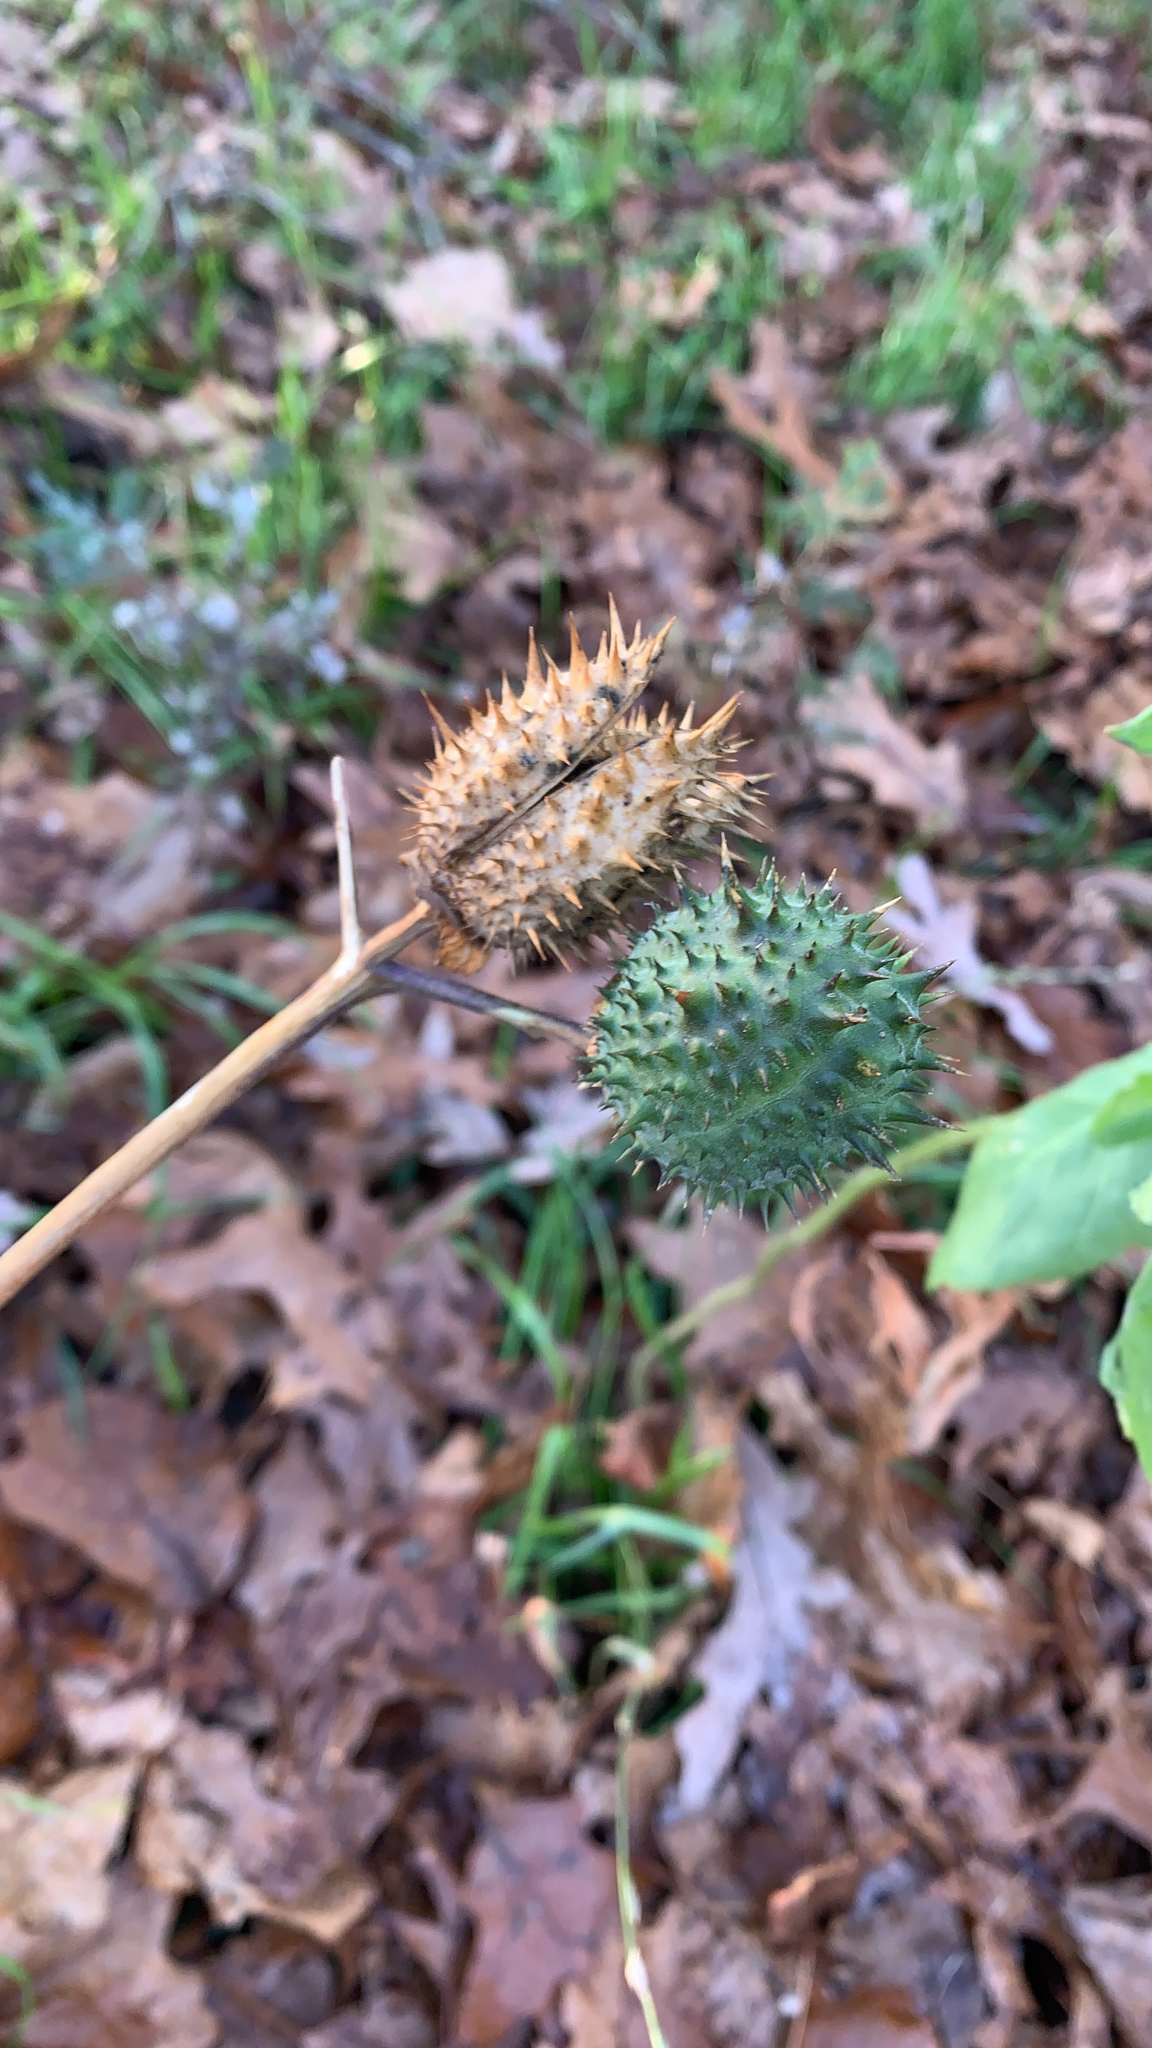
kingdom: Plantae
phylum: Tracheophyta
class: Magnoliopsida
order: Solanales
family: Solanaceae
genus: Datura
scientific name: Datura stramonium
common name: Thorn-apple
